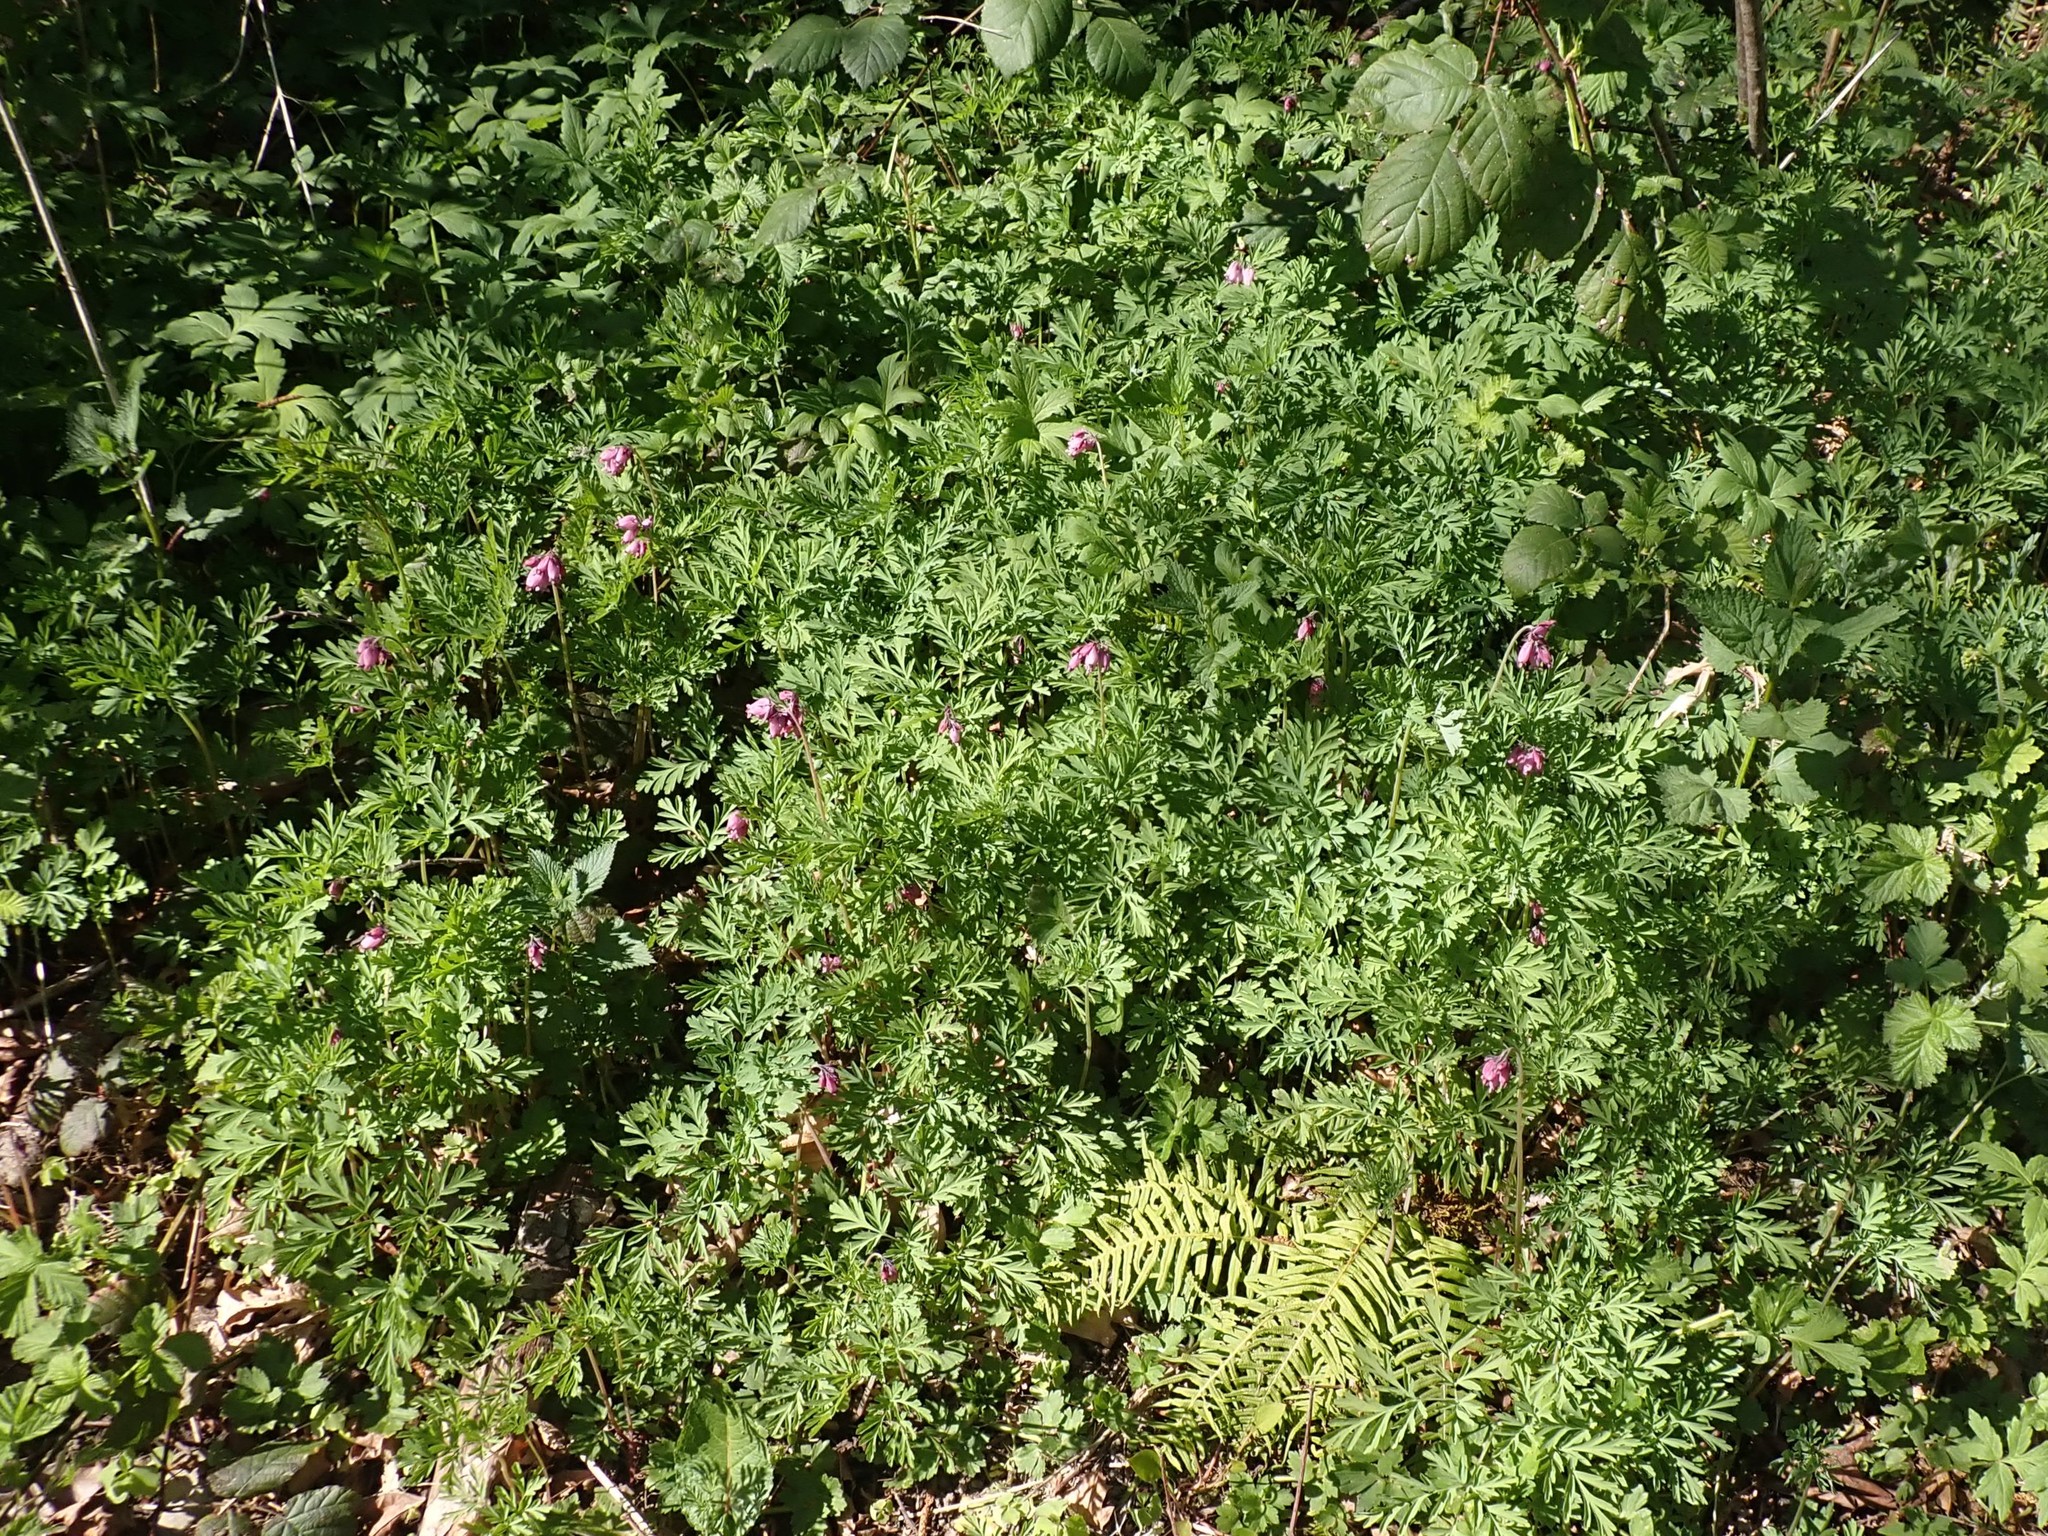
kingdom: Plantae
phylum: Tracheophyta
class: Magnoliopsida
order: Ranunculales
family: Papaveraceae
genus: Dicentra
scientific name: Dicentra formosa
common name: Bleeding-heart
